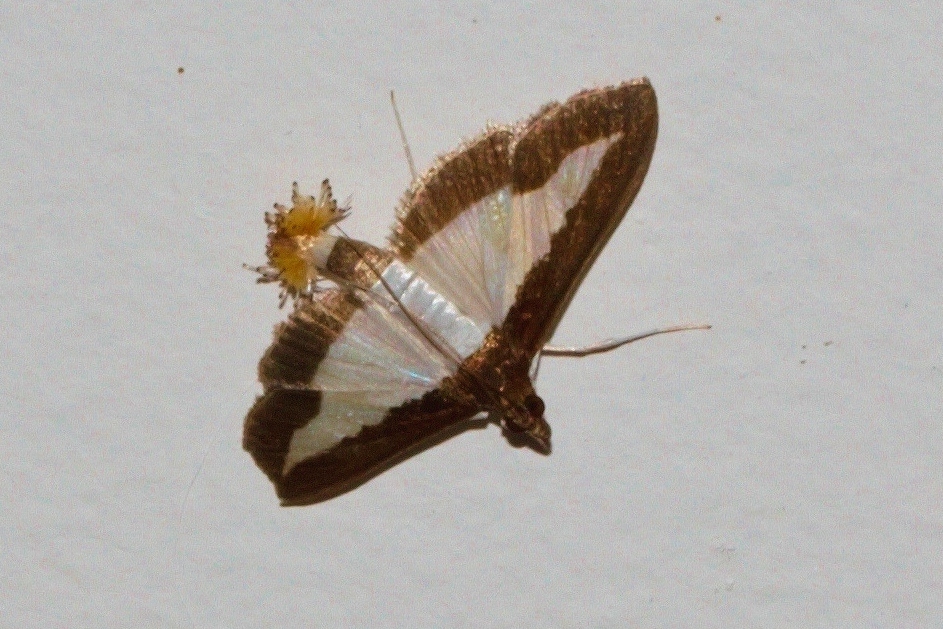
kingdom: Animalia
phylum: Arthropoda
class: Insecta
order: Lepidoptera
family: Crambidae
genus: Diaphania
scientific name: Diaphania indica
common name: Cucumber moth
